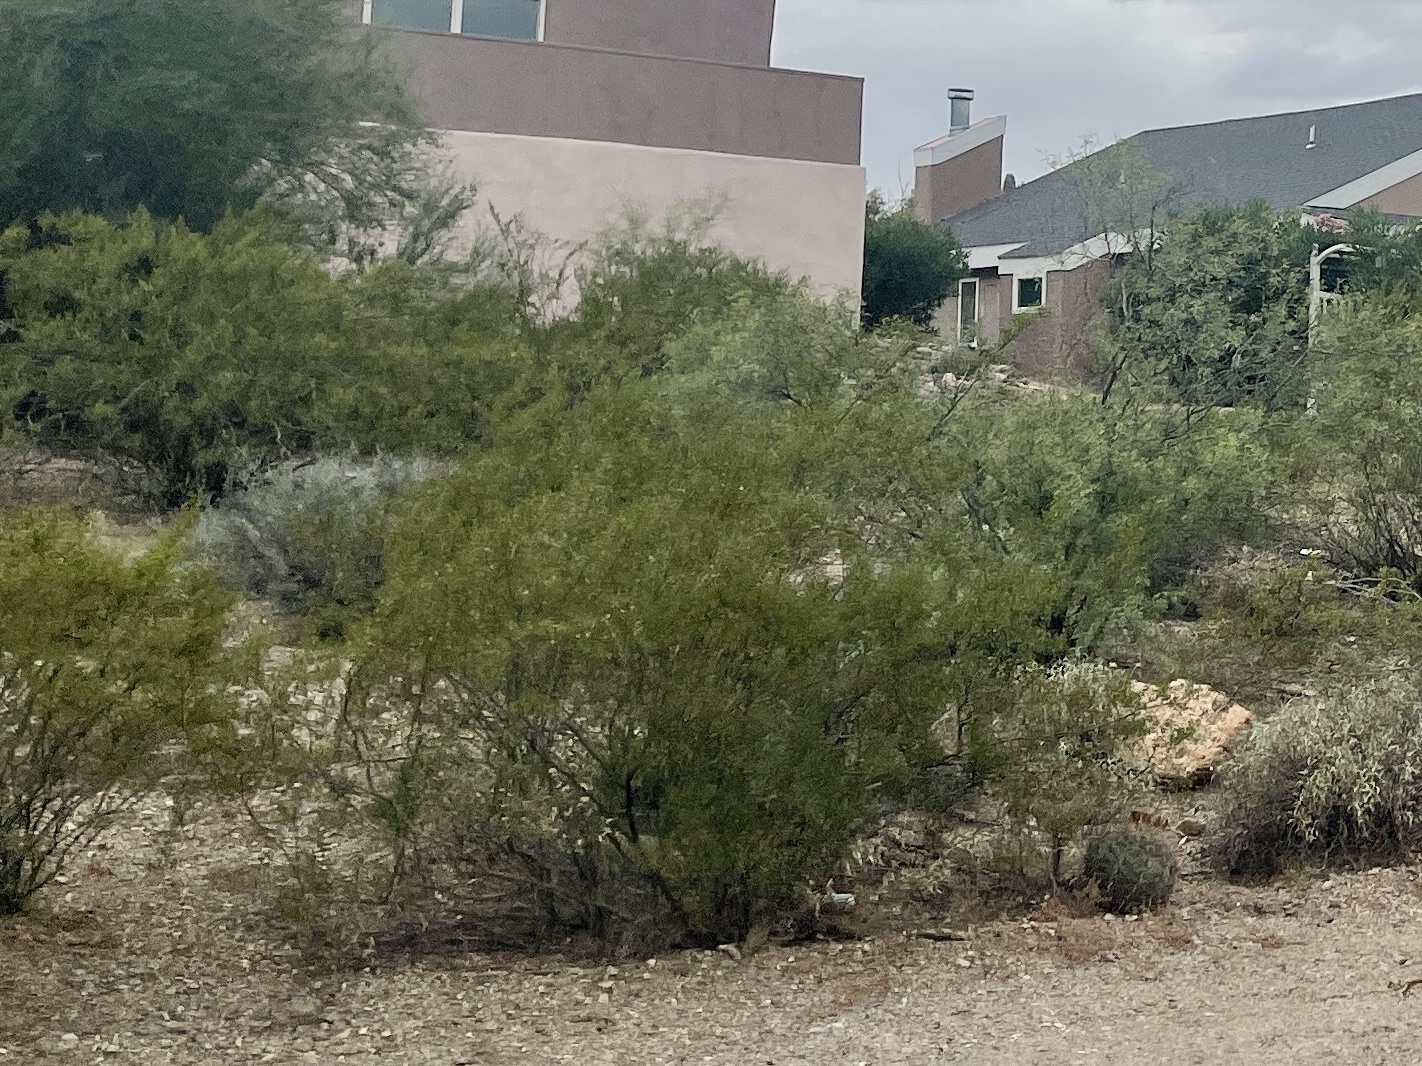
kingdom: Plantae
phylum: Tracheophyta
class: Magnoliopsida
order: Zygophyllales
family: Zygophyllaceae
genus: Larrea
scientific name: Larrea tridentata
